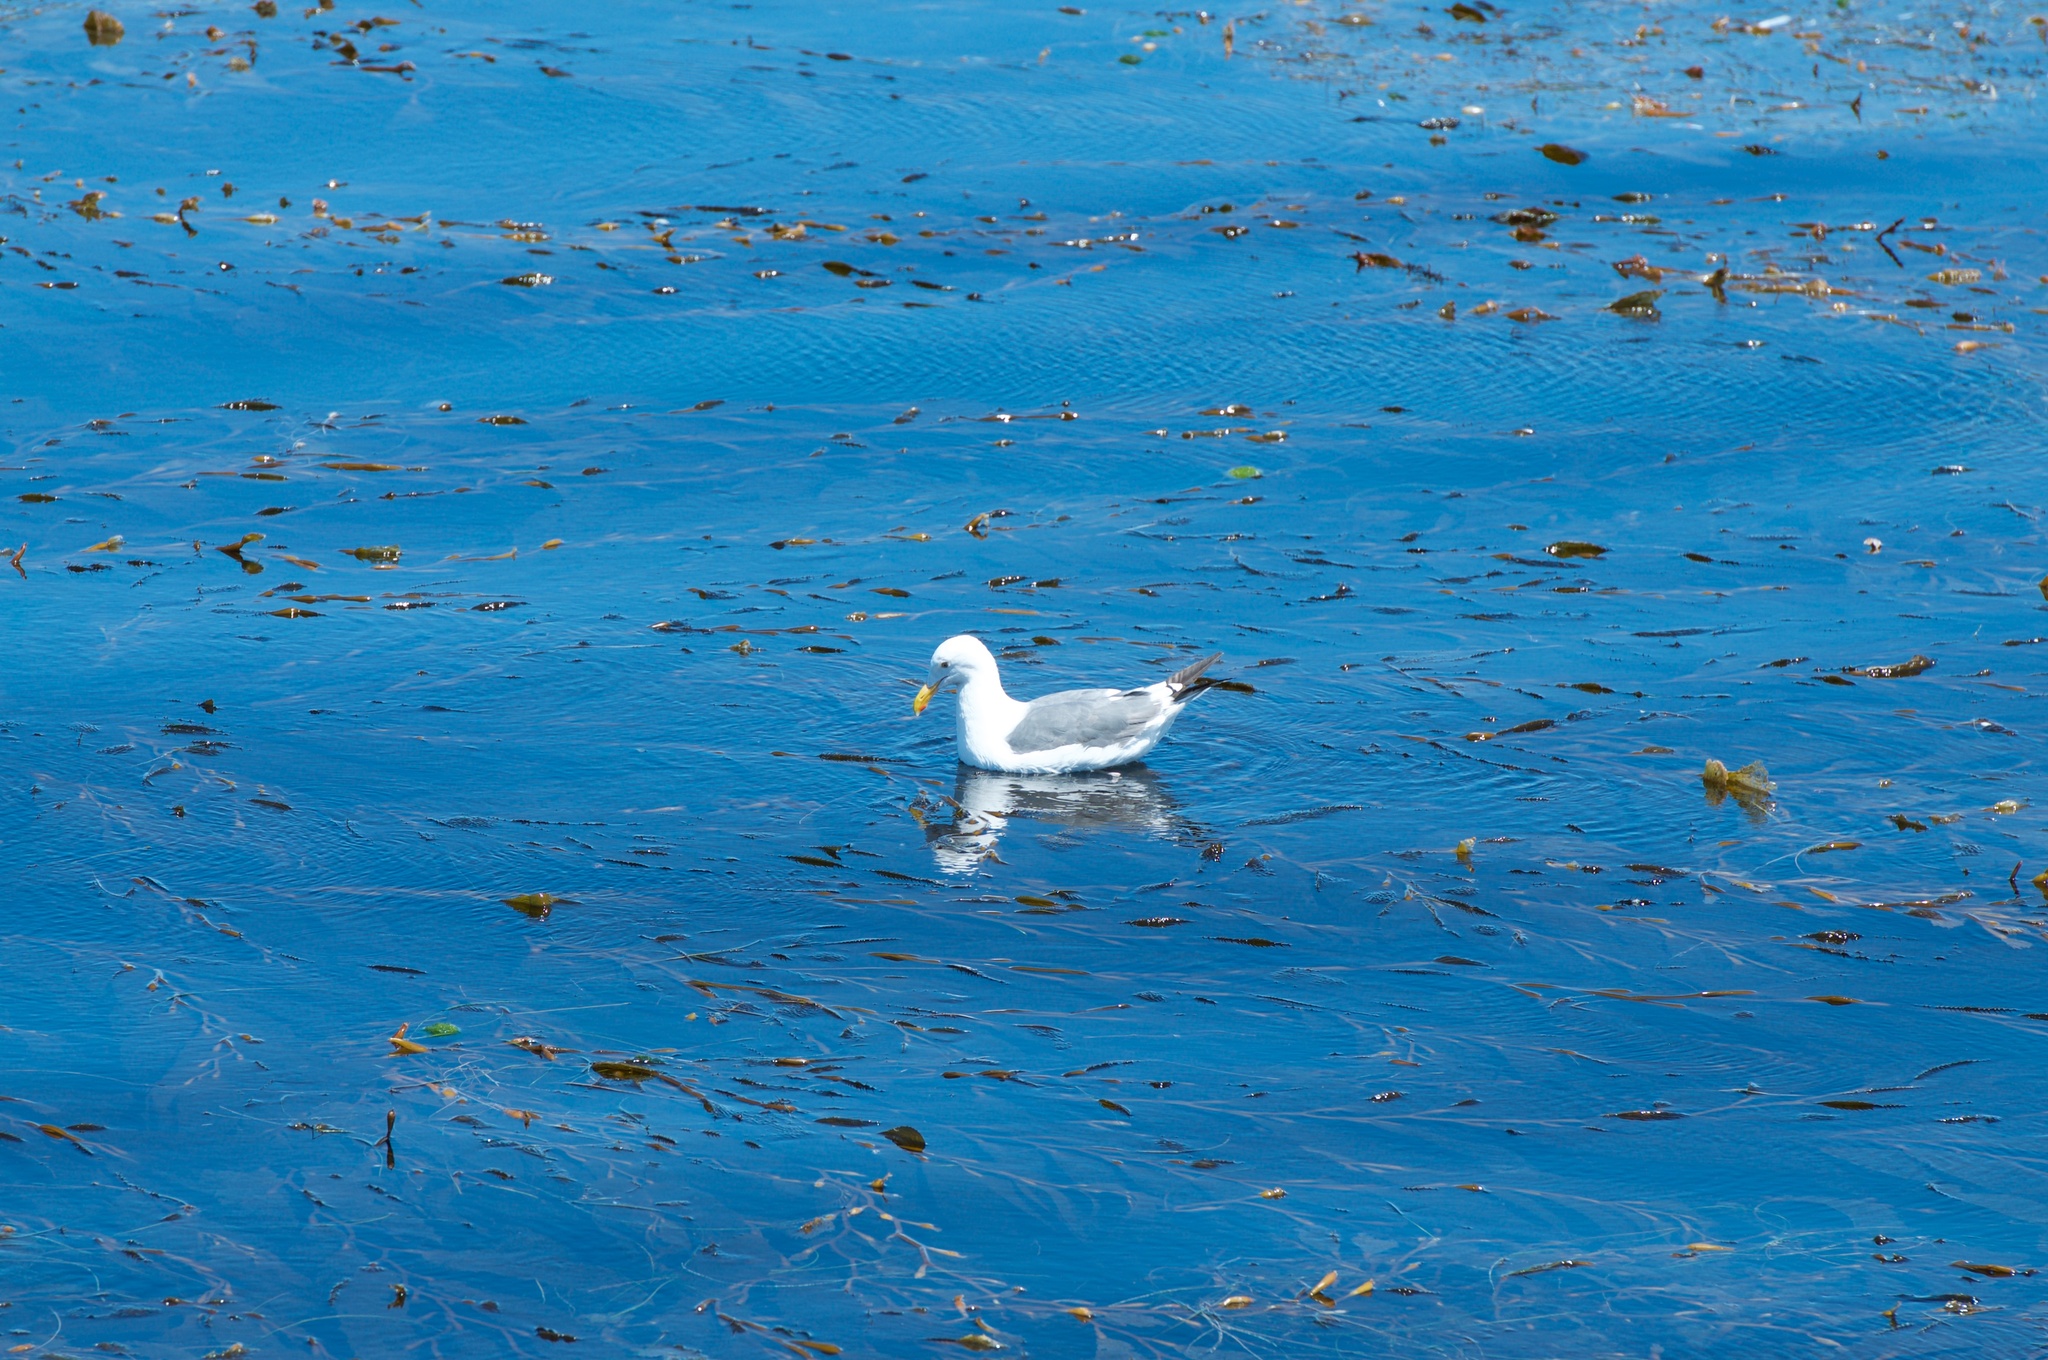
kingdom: Animalia
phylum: Chordata
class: Aves
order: Charadriiformes
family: Laridae
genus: Larus
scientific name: Larus
